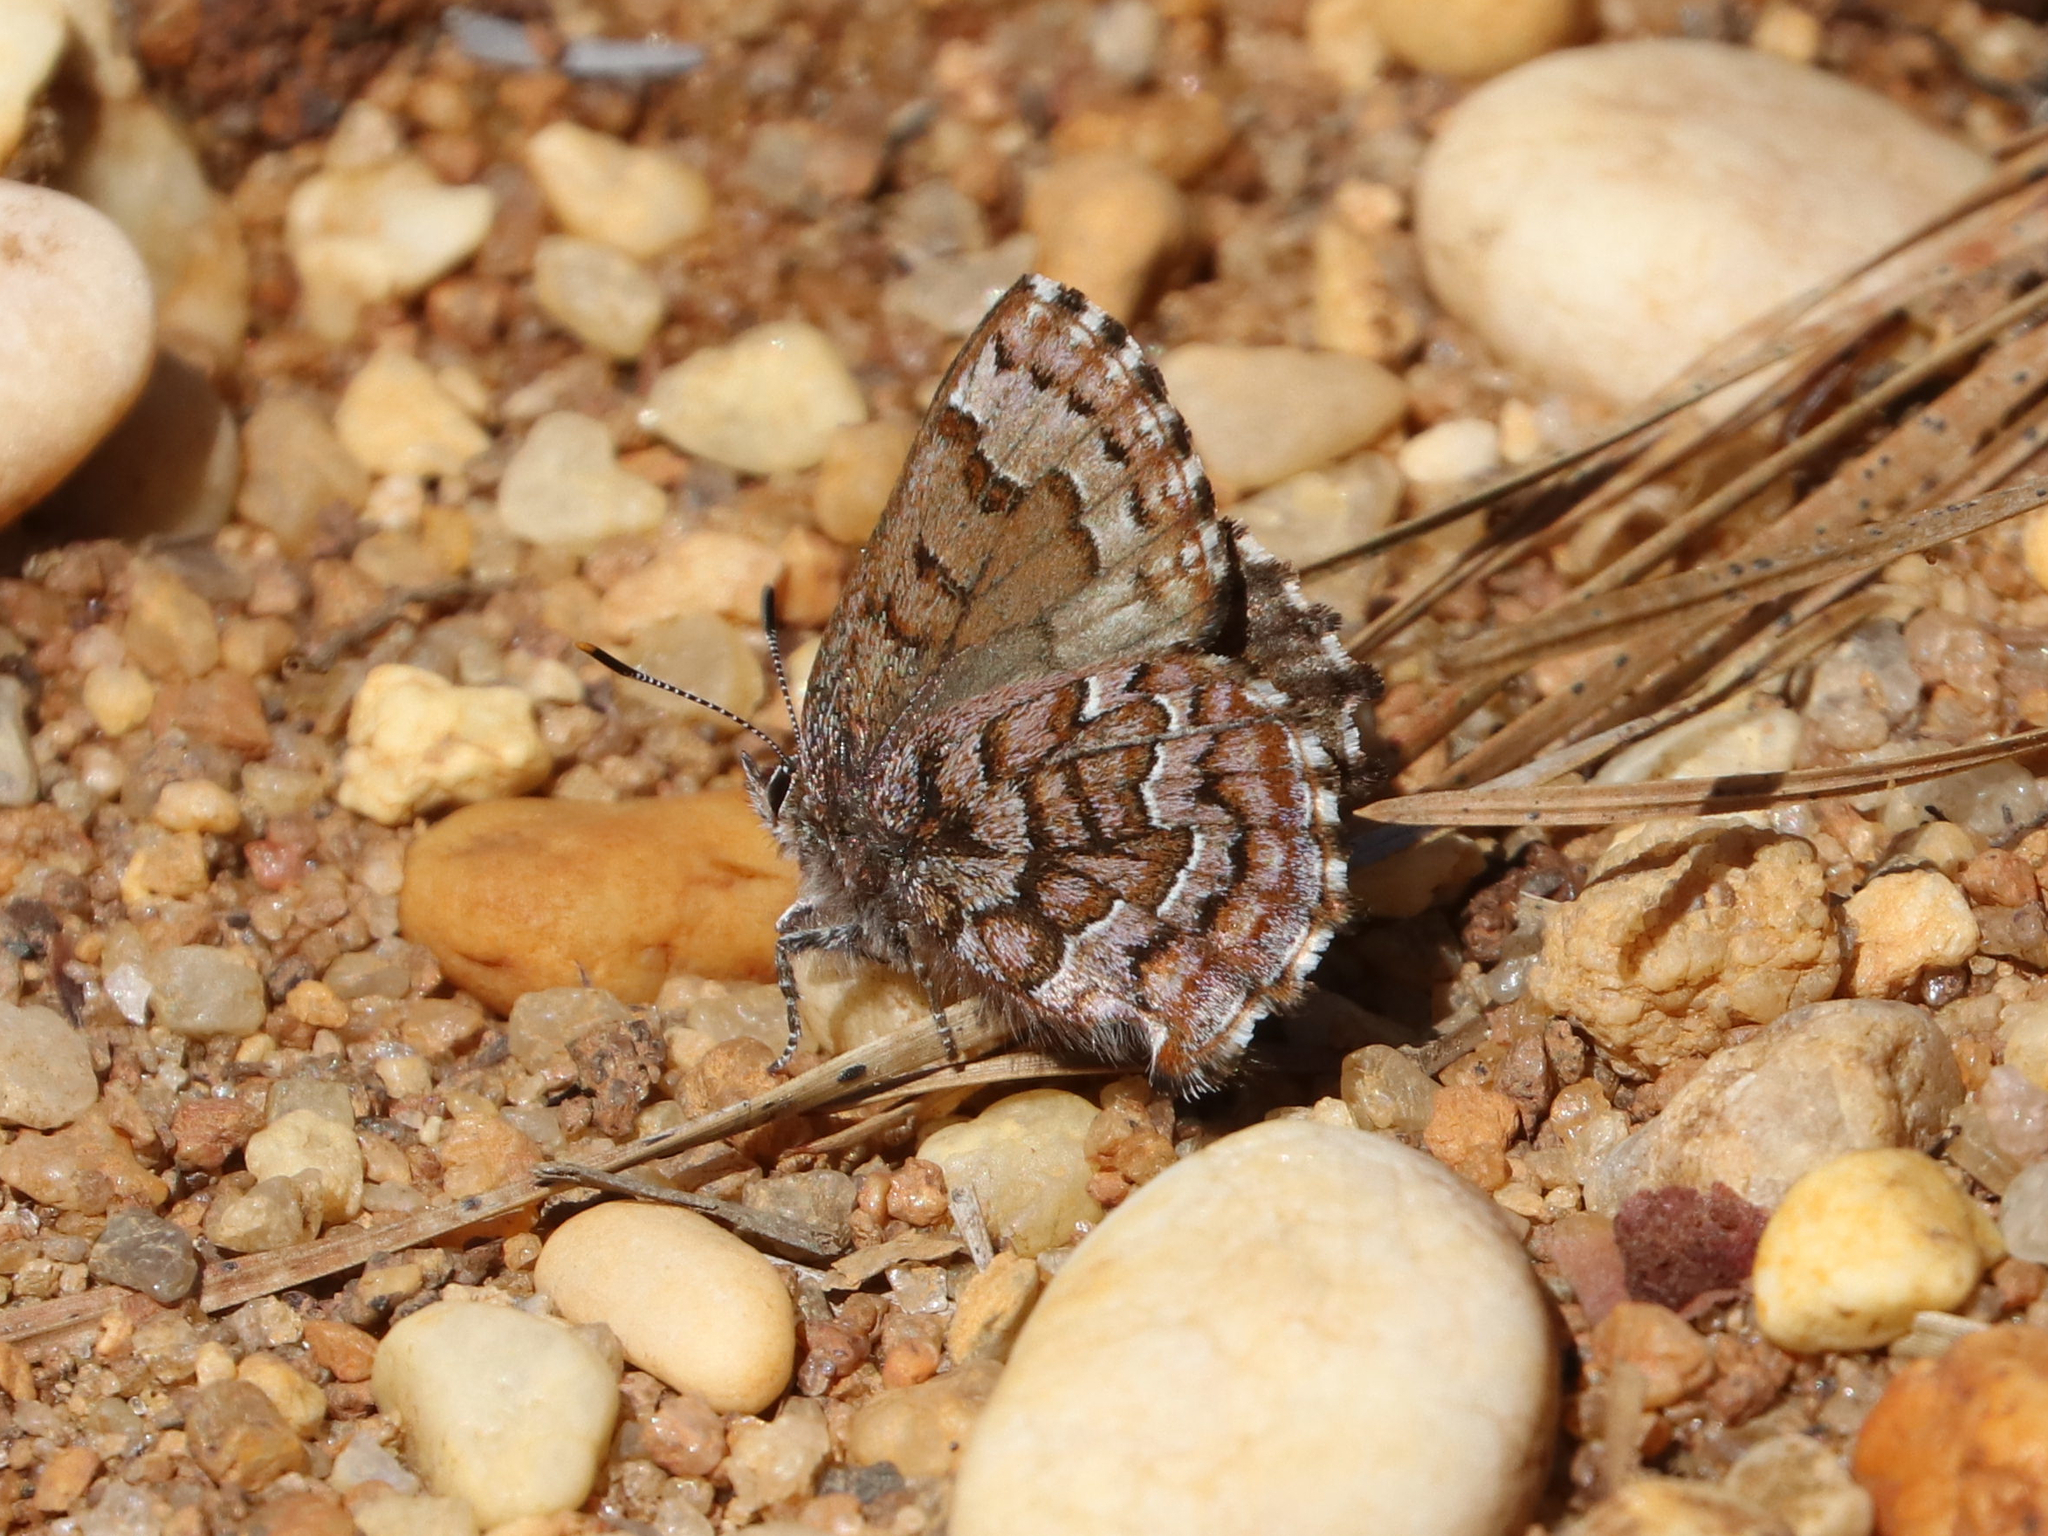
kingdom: Animalia
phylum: Arthropoda
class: Insecta
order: Lepidoptera
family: Lycaenidae
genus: Incisalia
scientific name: Incisalia niphon
